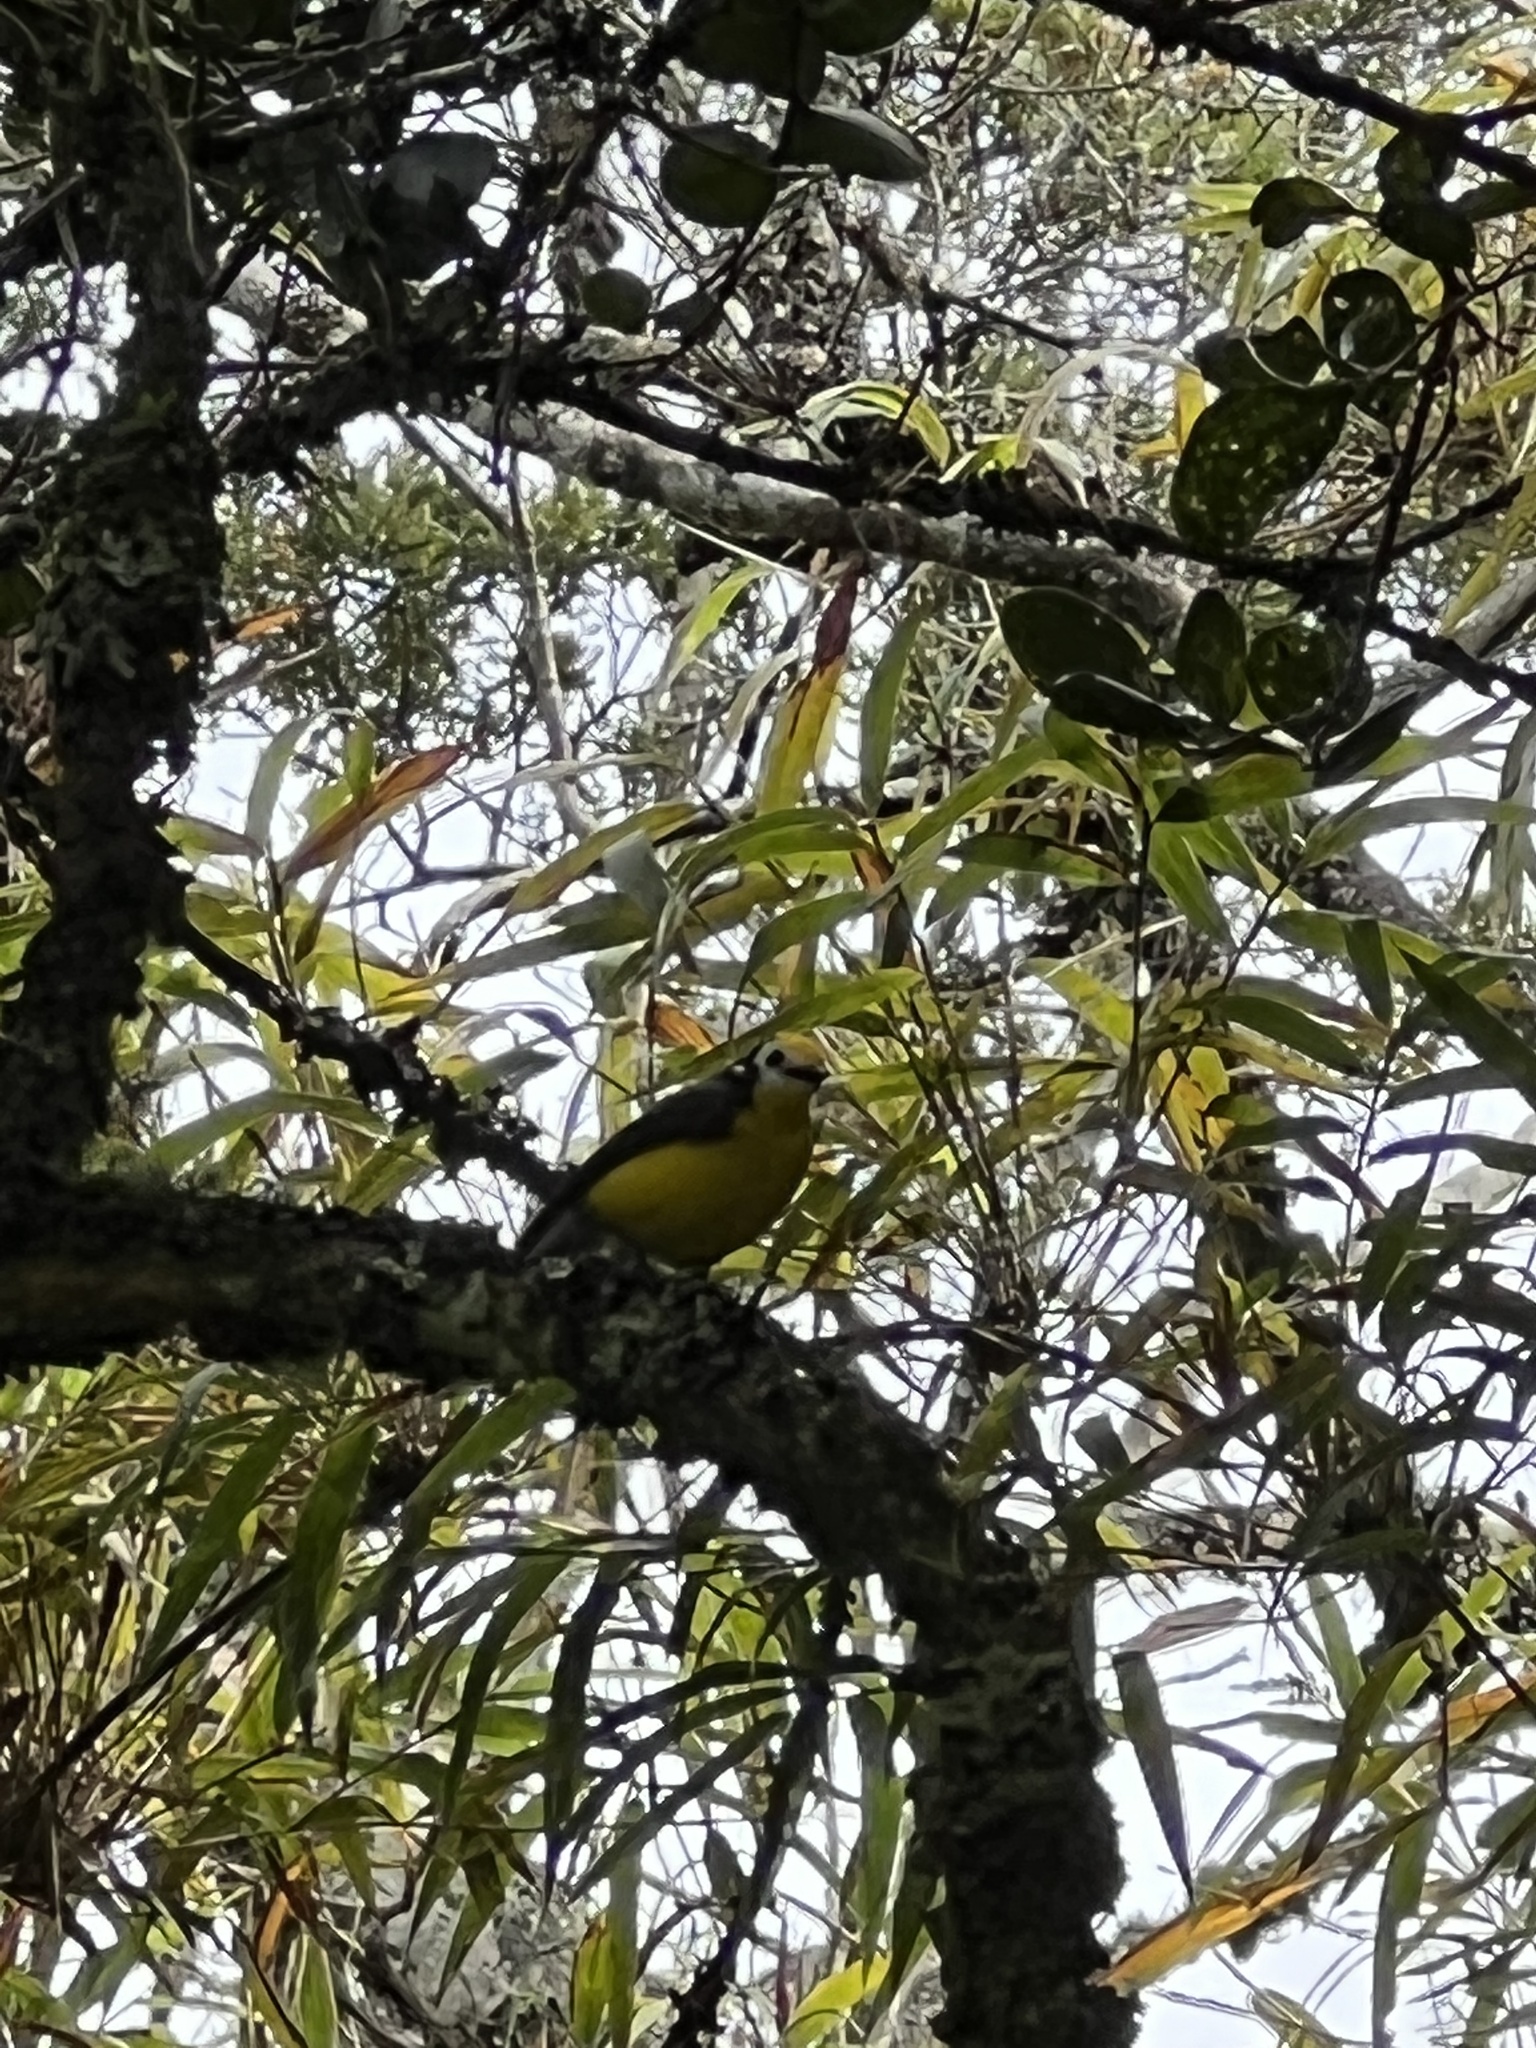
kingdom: Animalia
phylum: Chordata
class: Aves
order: Passeriformes
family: Parulidae
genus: Myioborus
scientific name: Myioborus ornatus
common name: Golden-fronted whitestart
